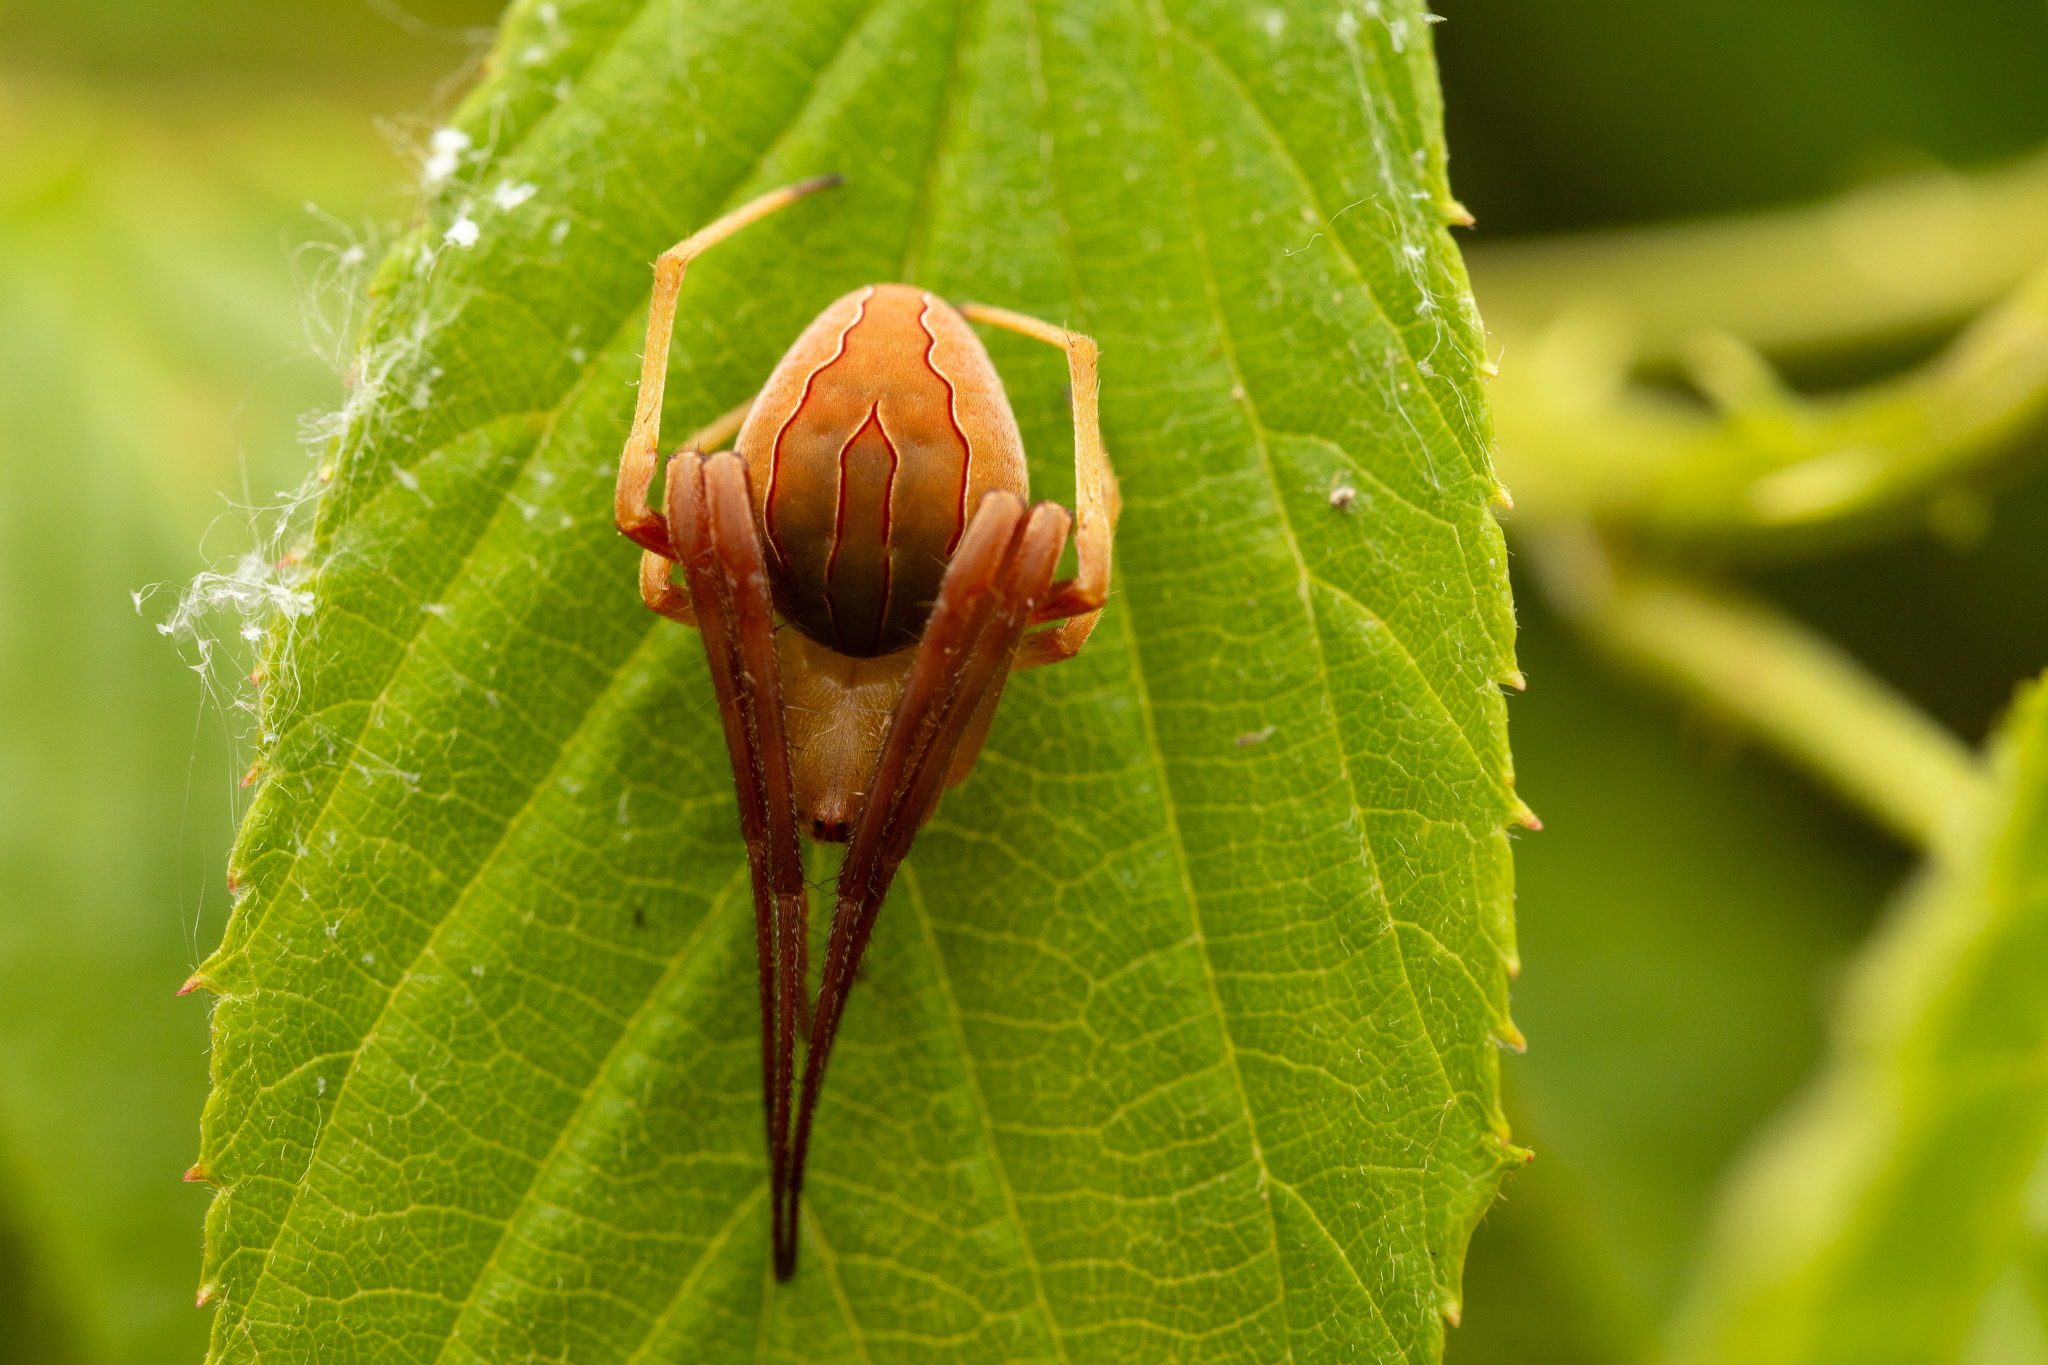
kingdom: Animalia
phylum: Arthropoda
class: Arachnida
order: Araneae
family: Araneidae
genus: Acacesia
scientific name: Acacesia hamata
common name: Orb weavers
